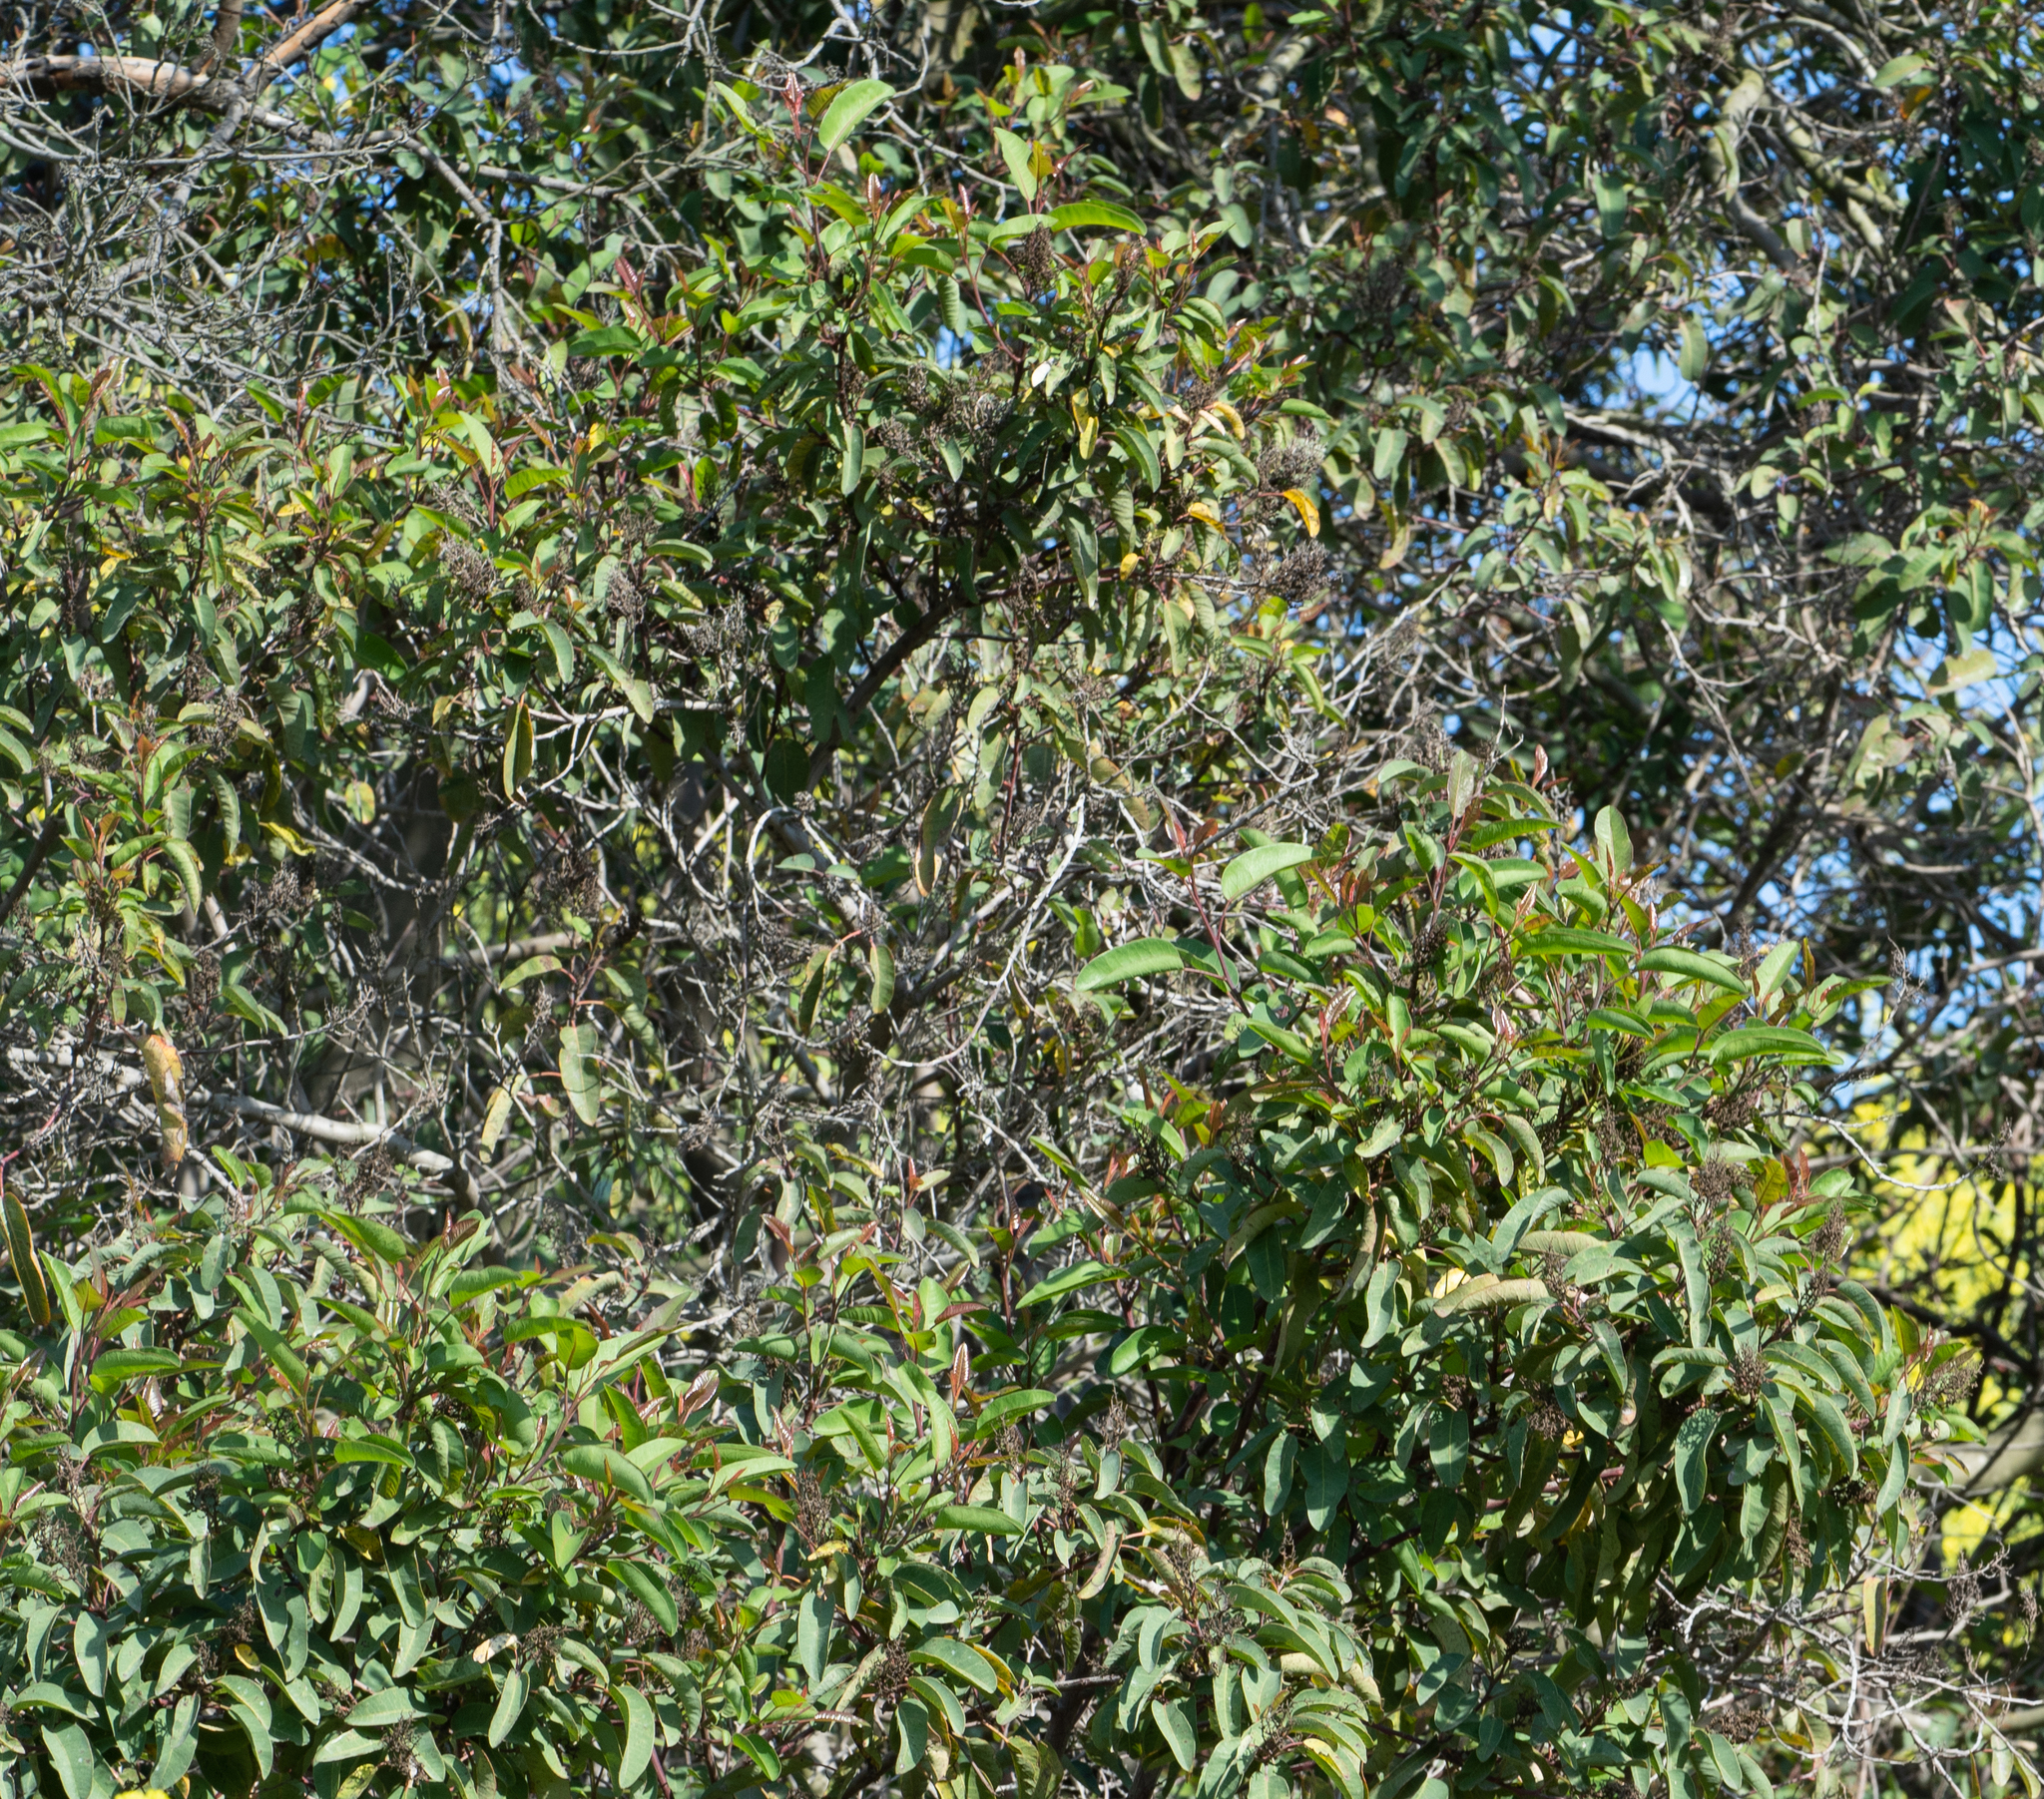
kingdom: Plantae
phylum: Tracheophyta
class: Magnoliopsida
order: Sapindales
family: Anacardiaceae
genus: Malosma
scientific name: Malosma laurina
